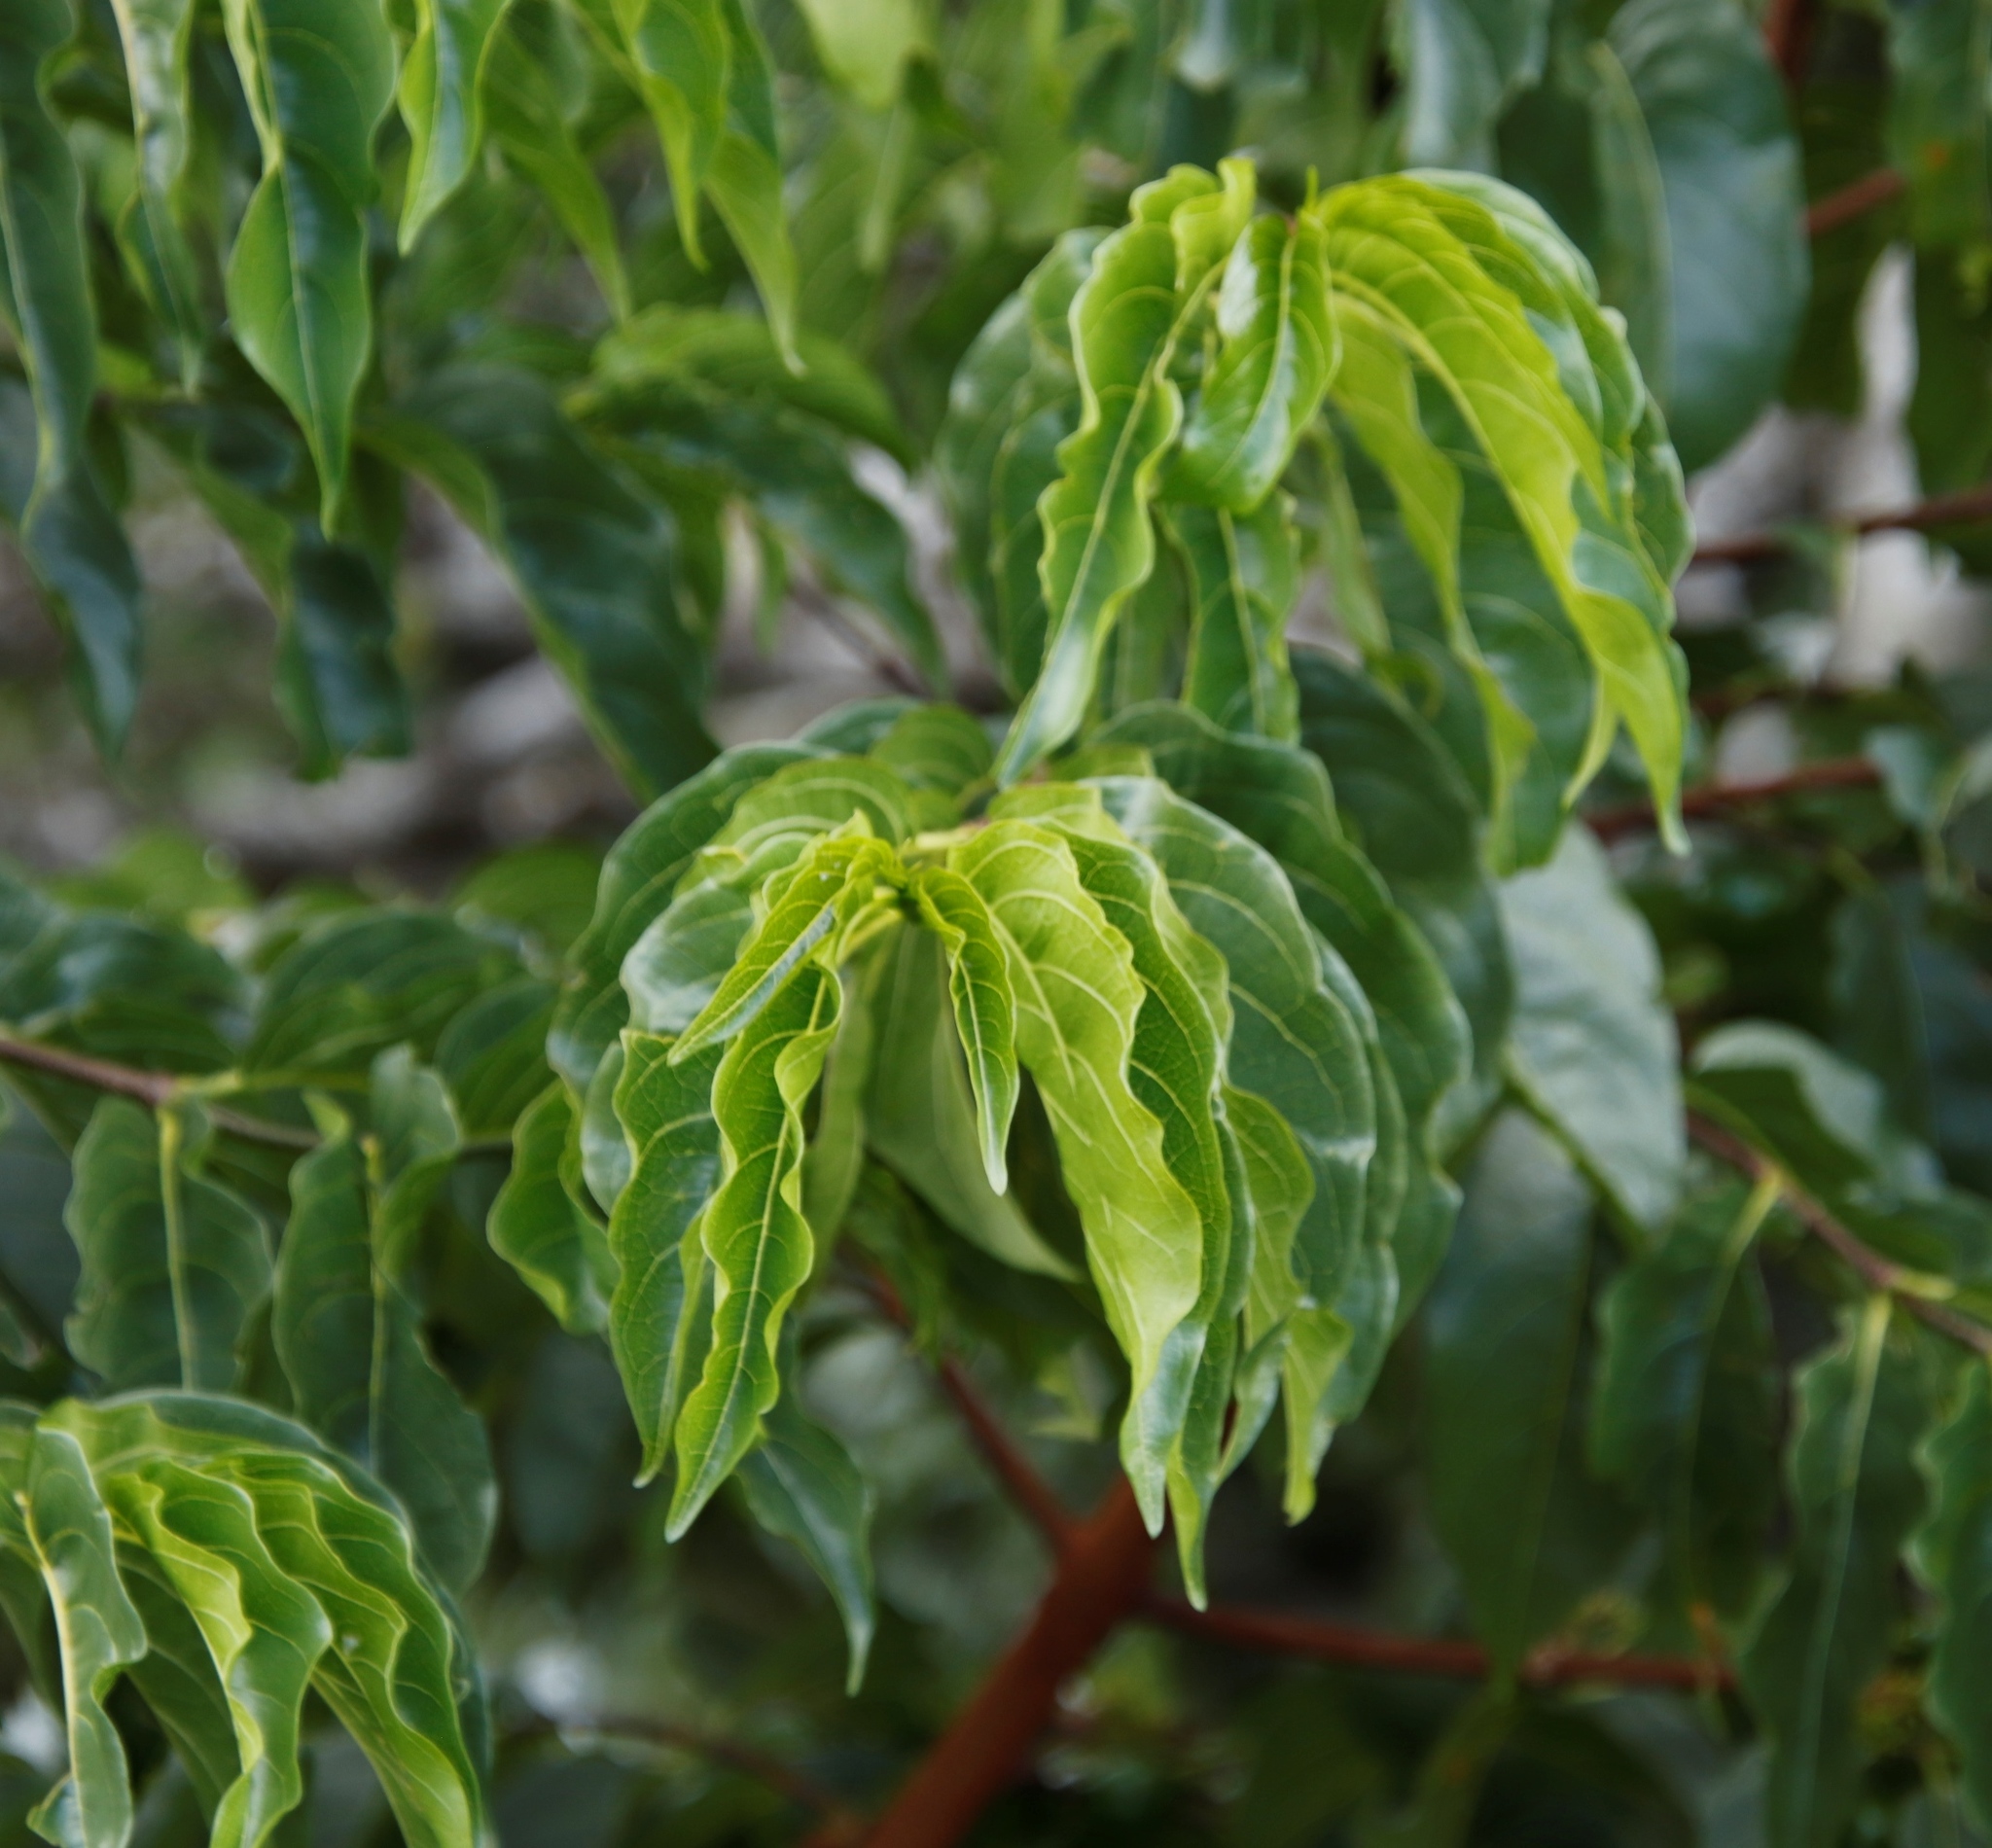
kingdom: Plantae
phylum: Tracheophyta
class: Magnoliopsida
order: Gentianales
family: Rubiaceae
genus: Vangueria
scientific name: Vangueria apiculata
